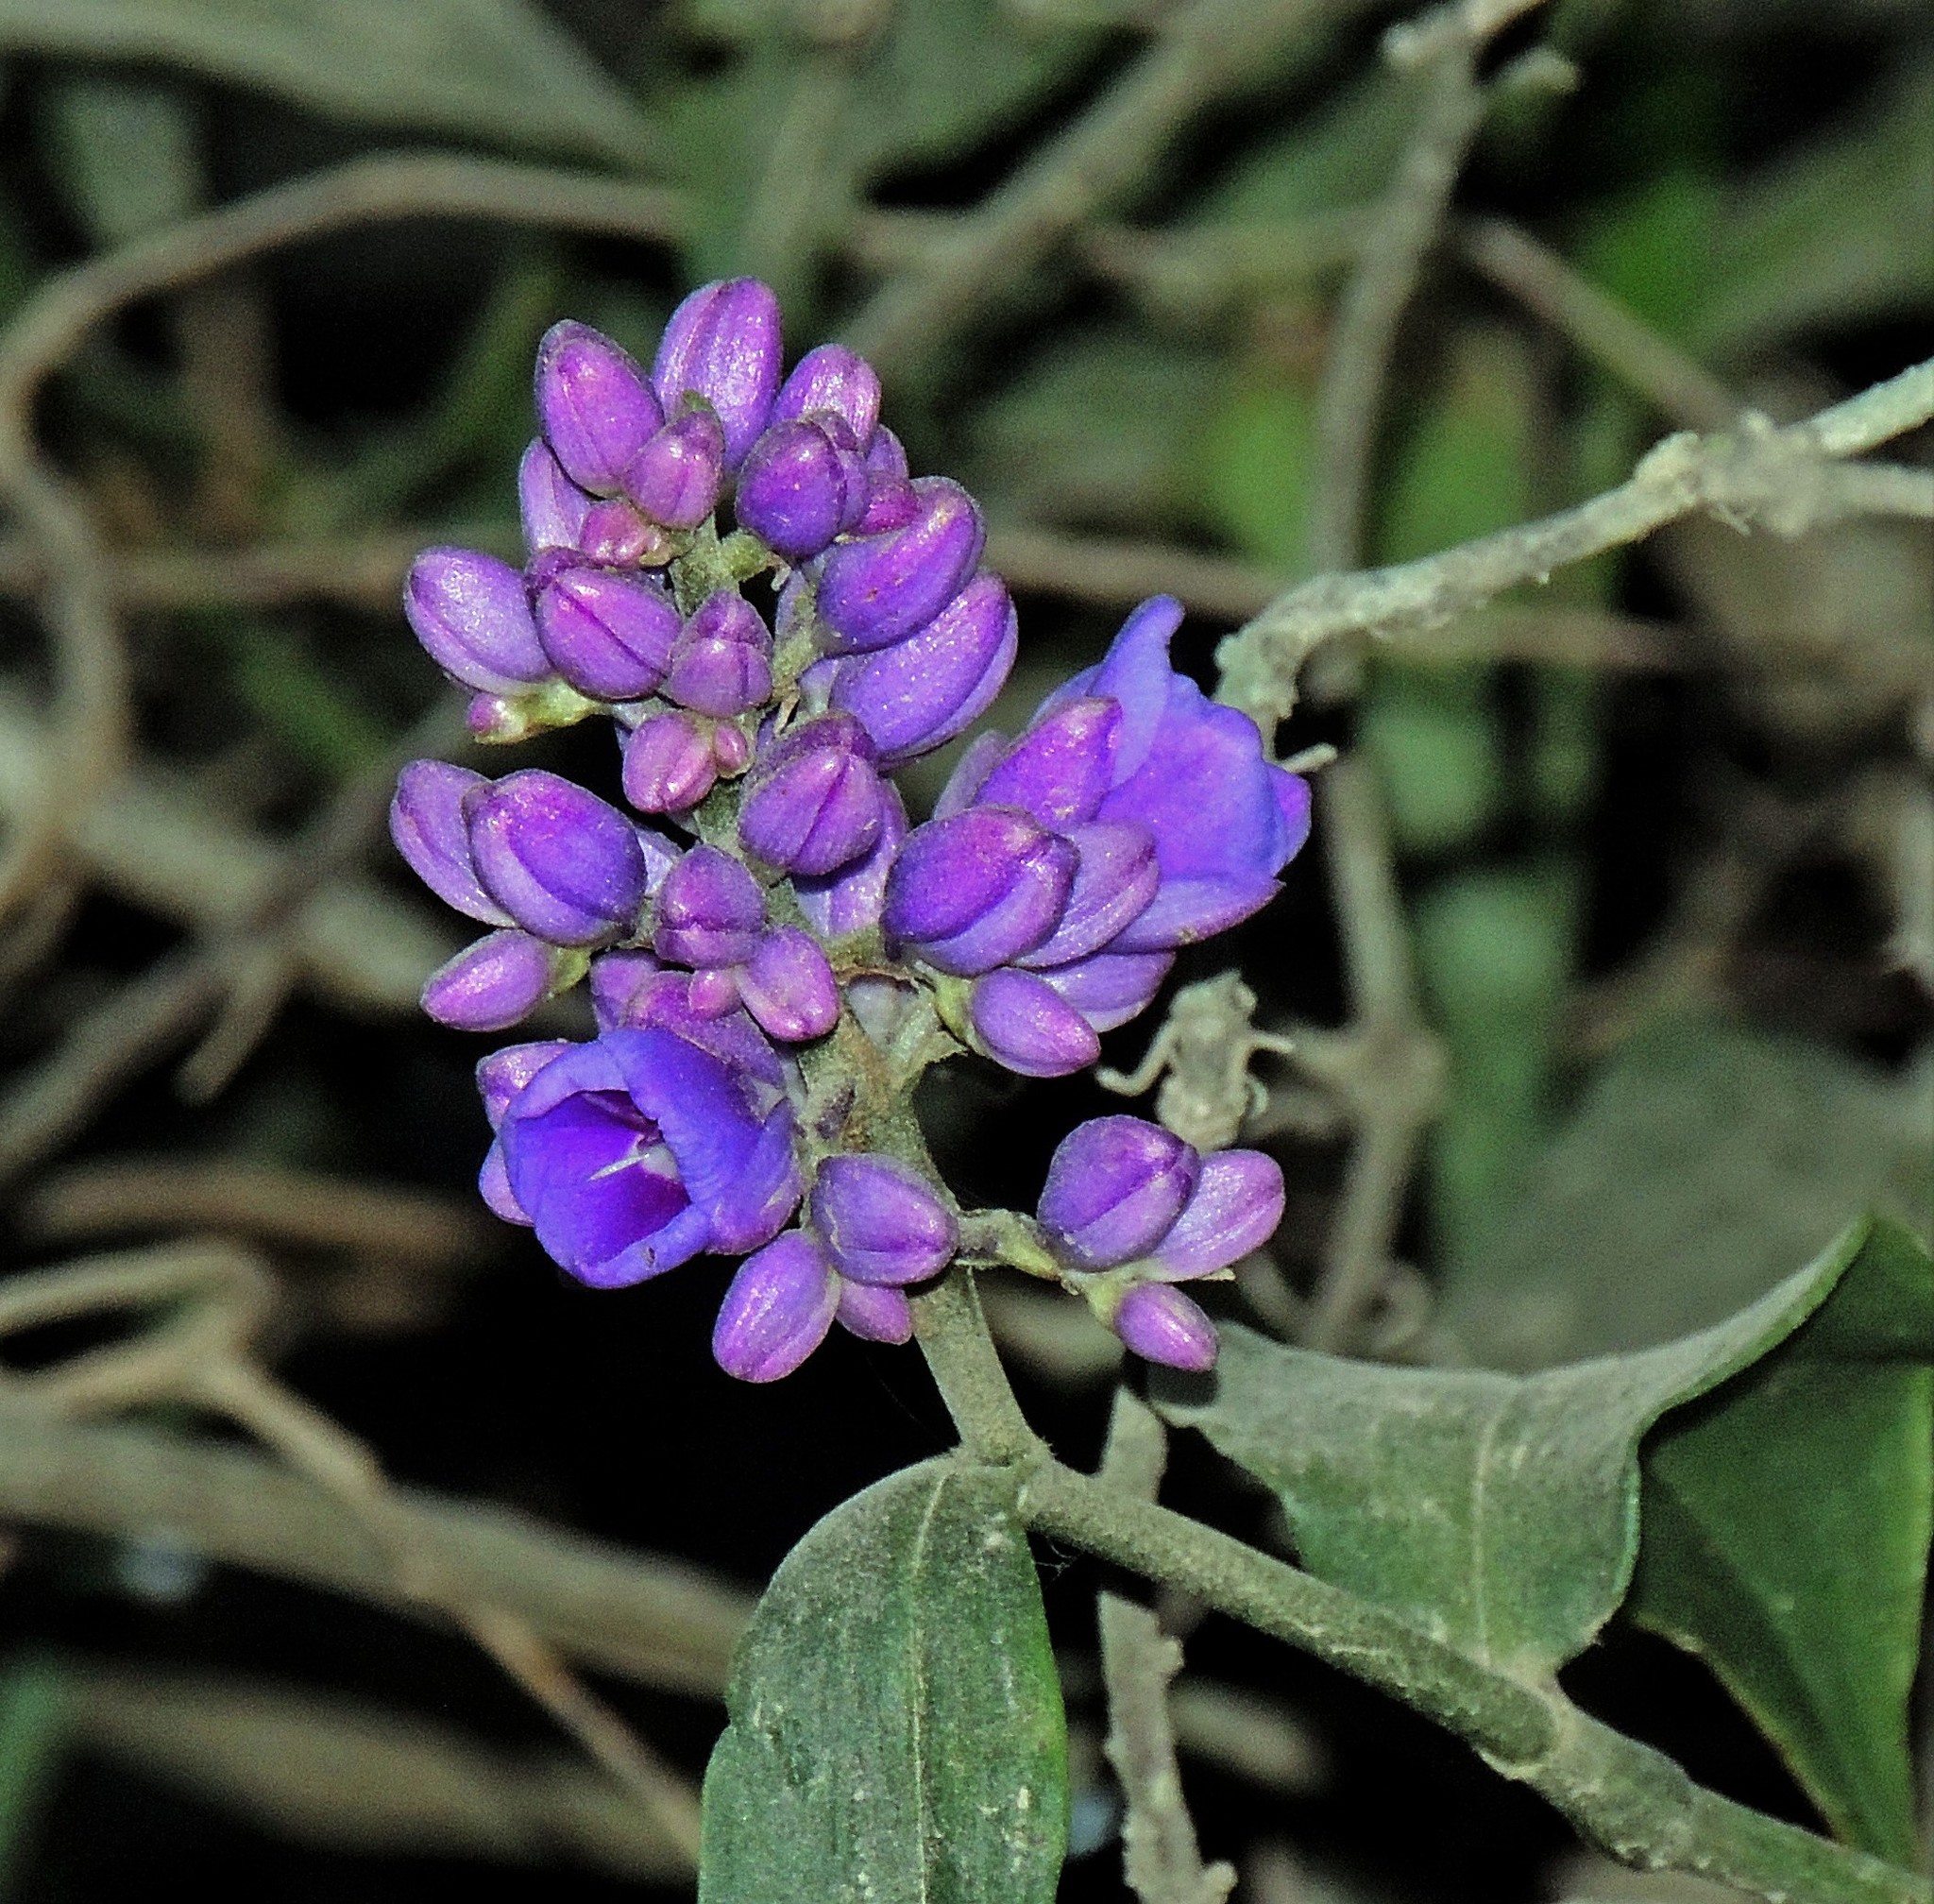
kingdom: Plantae
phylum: Tracheophyta
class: Liliopsida
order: Commelinales
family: Commelinaceae
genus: Dichorisandra
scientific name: Dichorisandra hexandra
